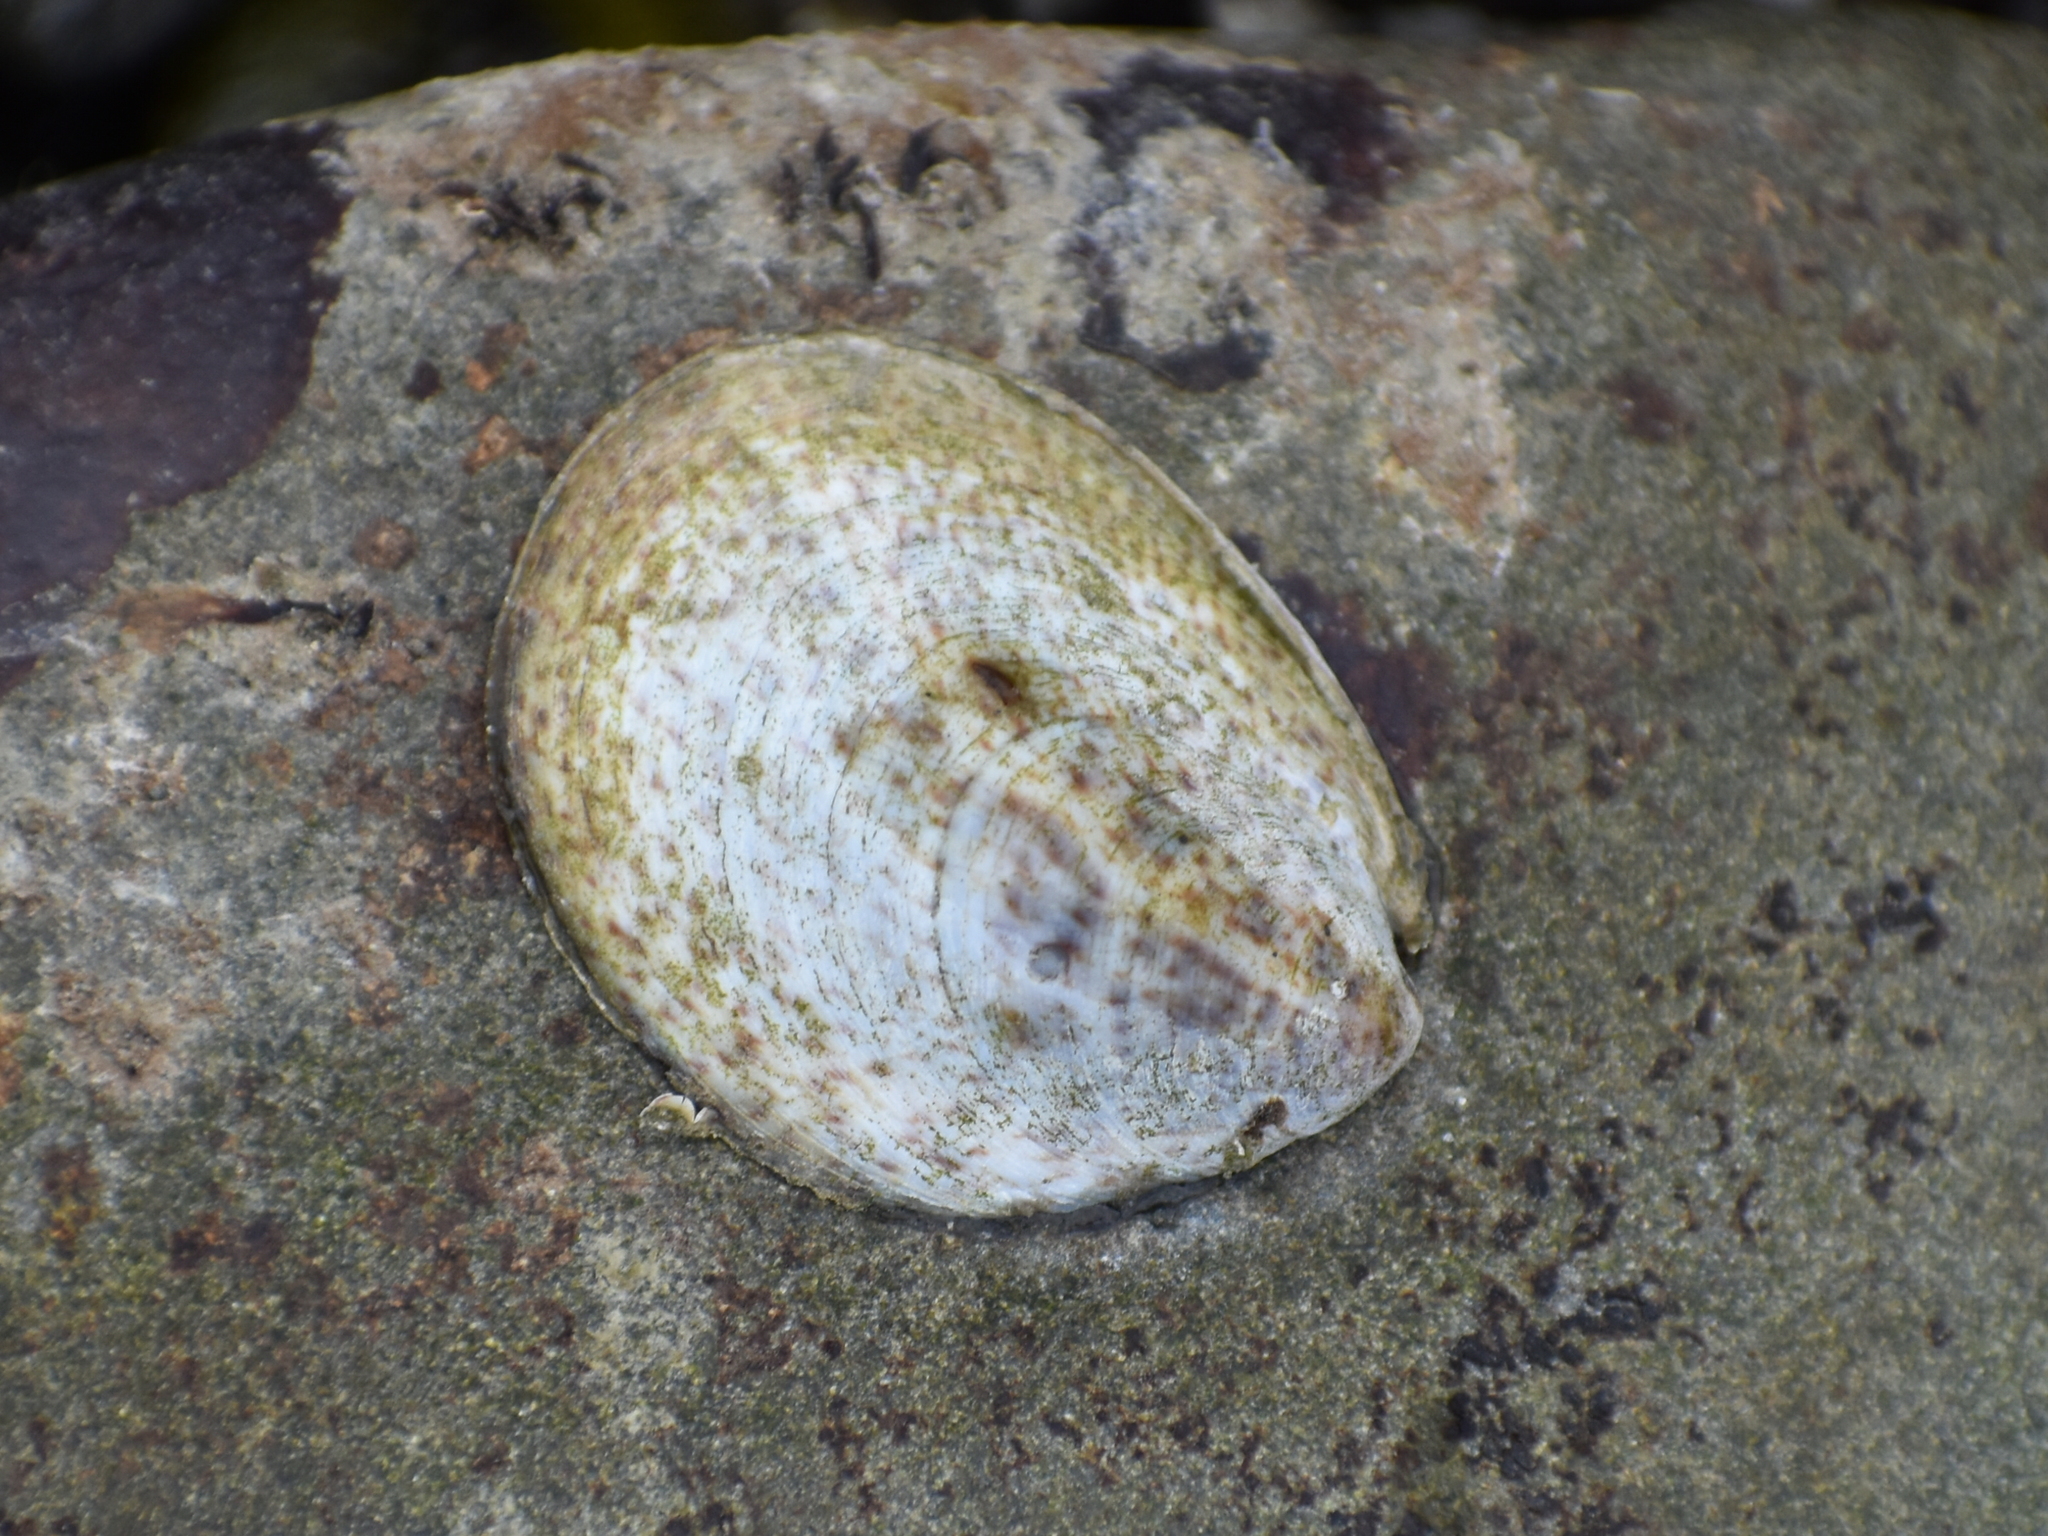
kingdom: Animalia
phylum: Mollusca
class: Gastropoda
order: Littorinimorpha
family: Calyptraeidae
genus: Crepidula
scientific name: Crepidula fornicata
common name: Slipper limpet
